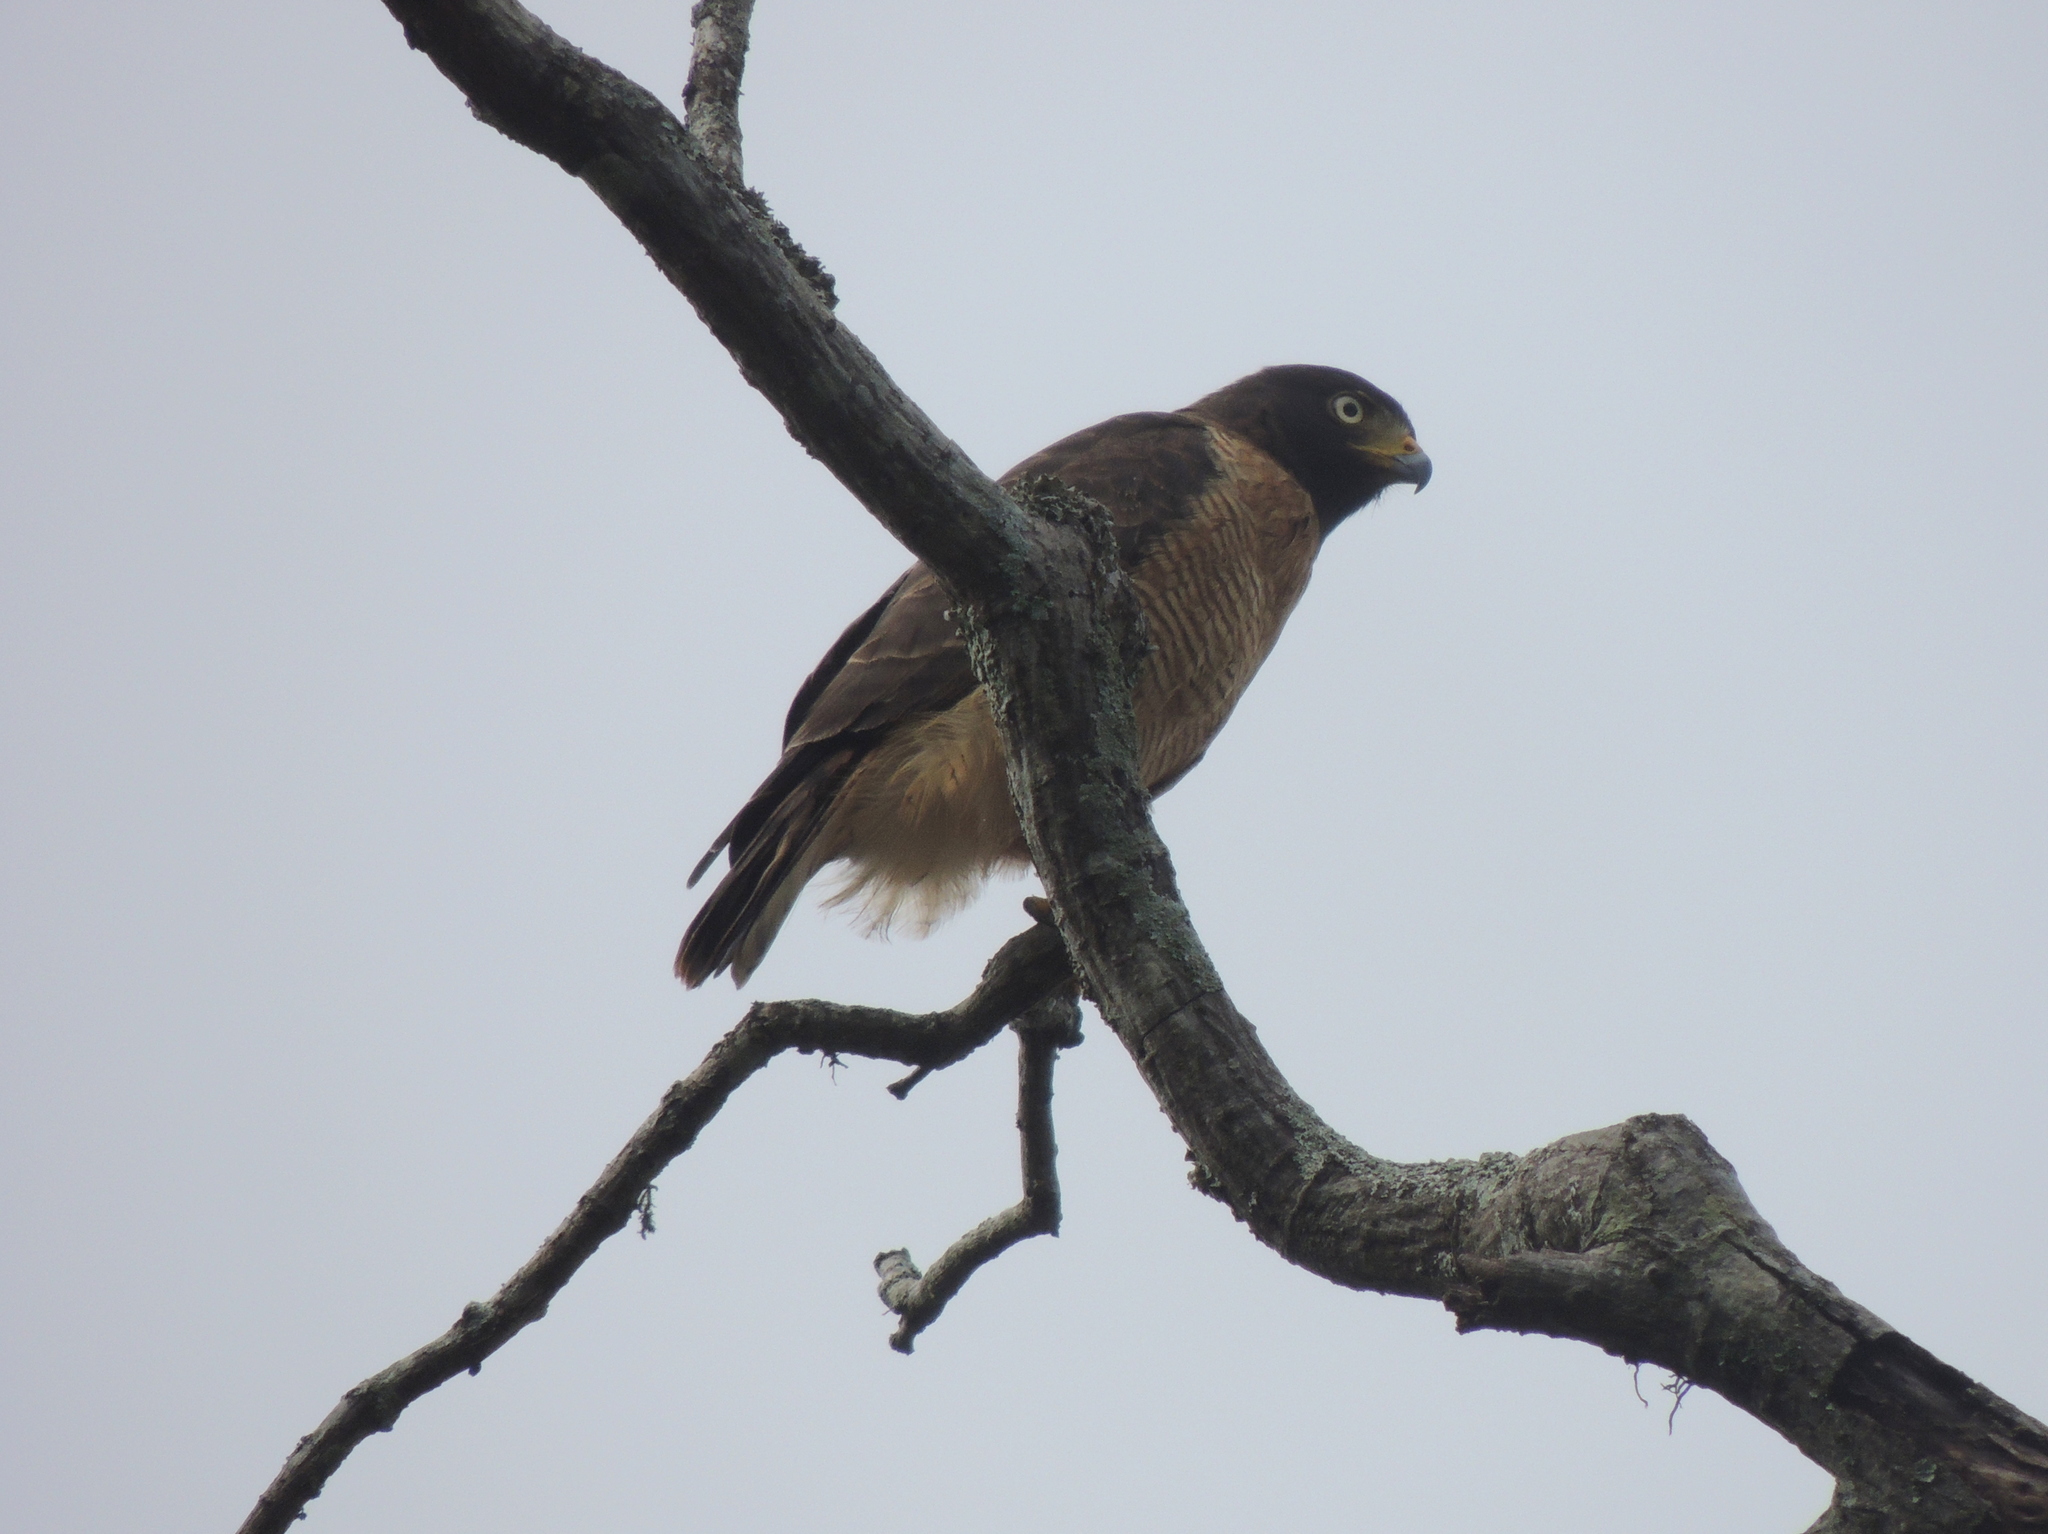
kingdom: Animalia
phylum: Chordata
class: Aves
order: Accipitriformes
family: Accipitridae
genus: Rupornis
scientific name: Rupornis magnirostris
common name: Roadside hawk
